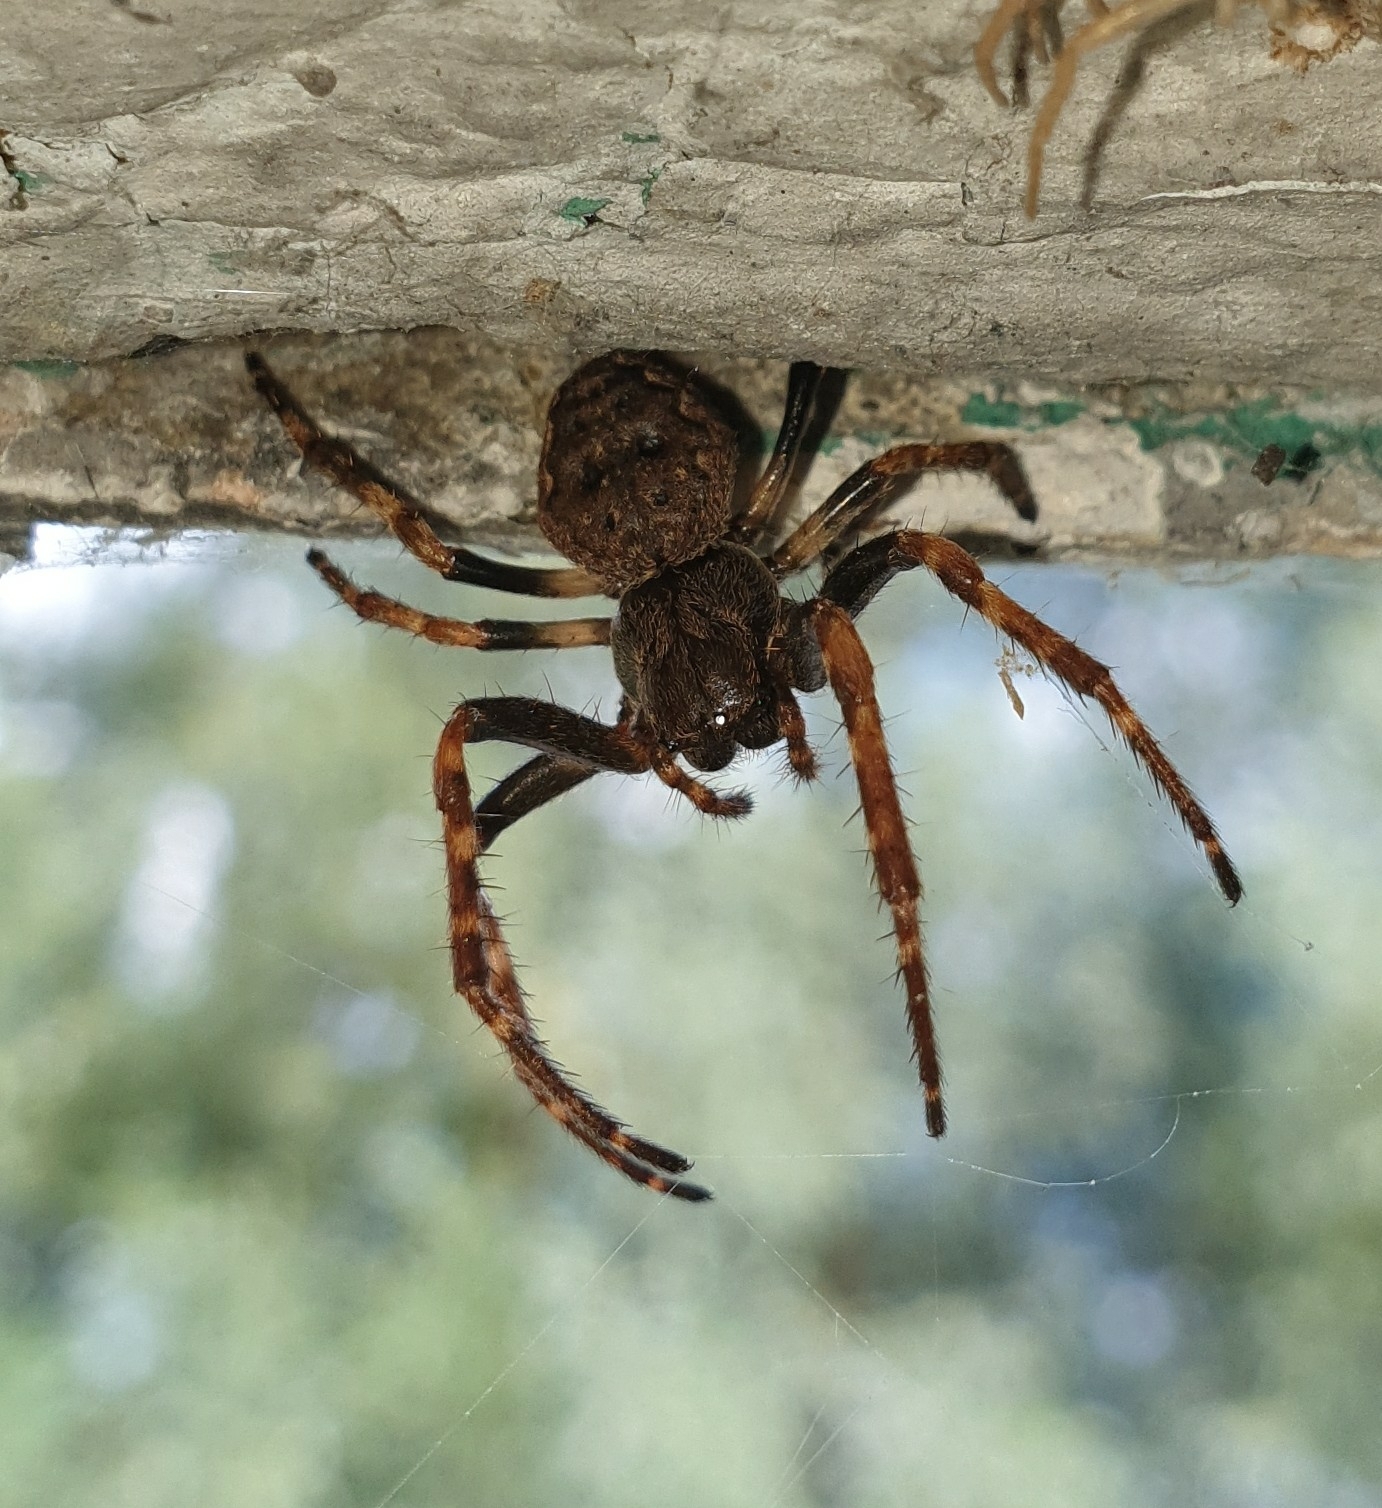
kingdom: Animalia
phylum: Arthropoda
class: Arachnida
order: Araneae
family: Araneidae
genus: Nuctenea
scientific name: Nuctenea umbratica
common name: Toad spider
